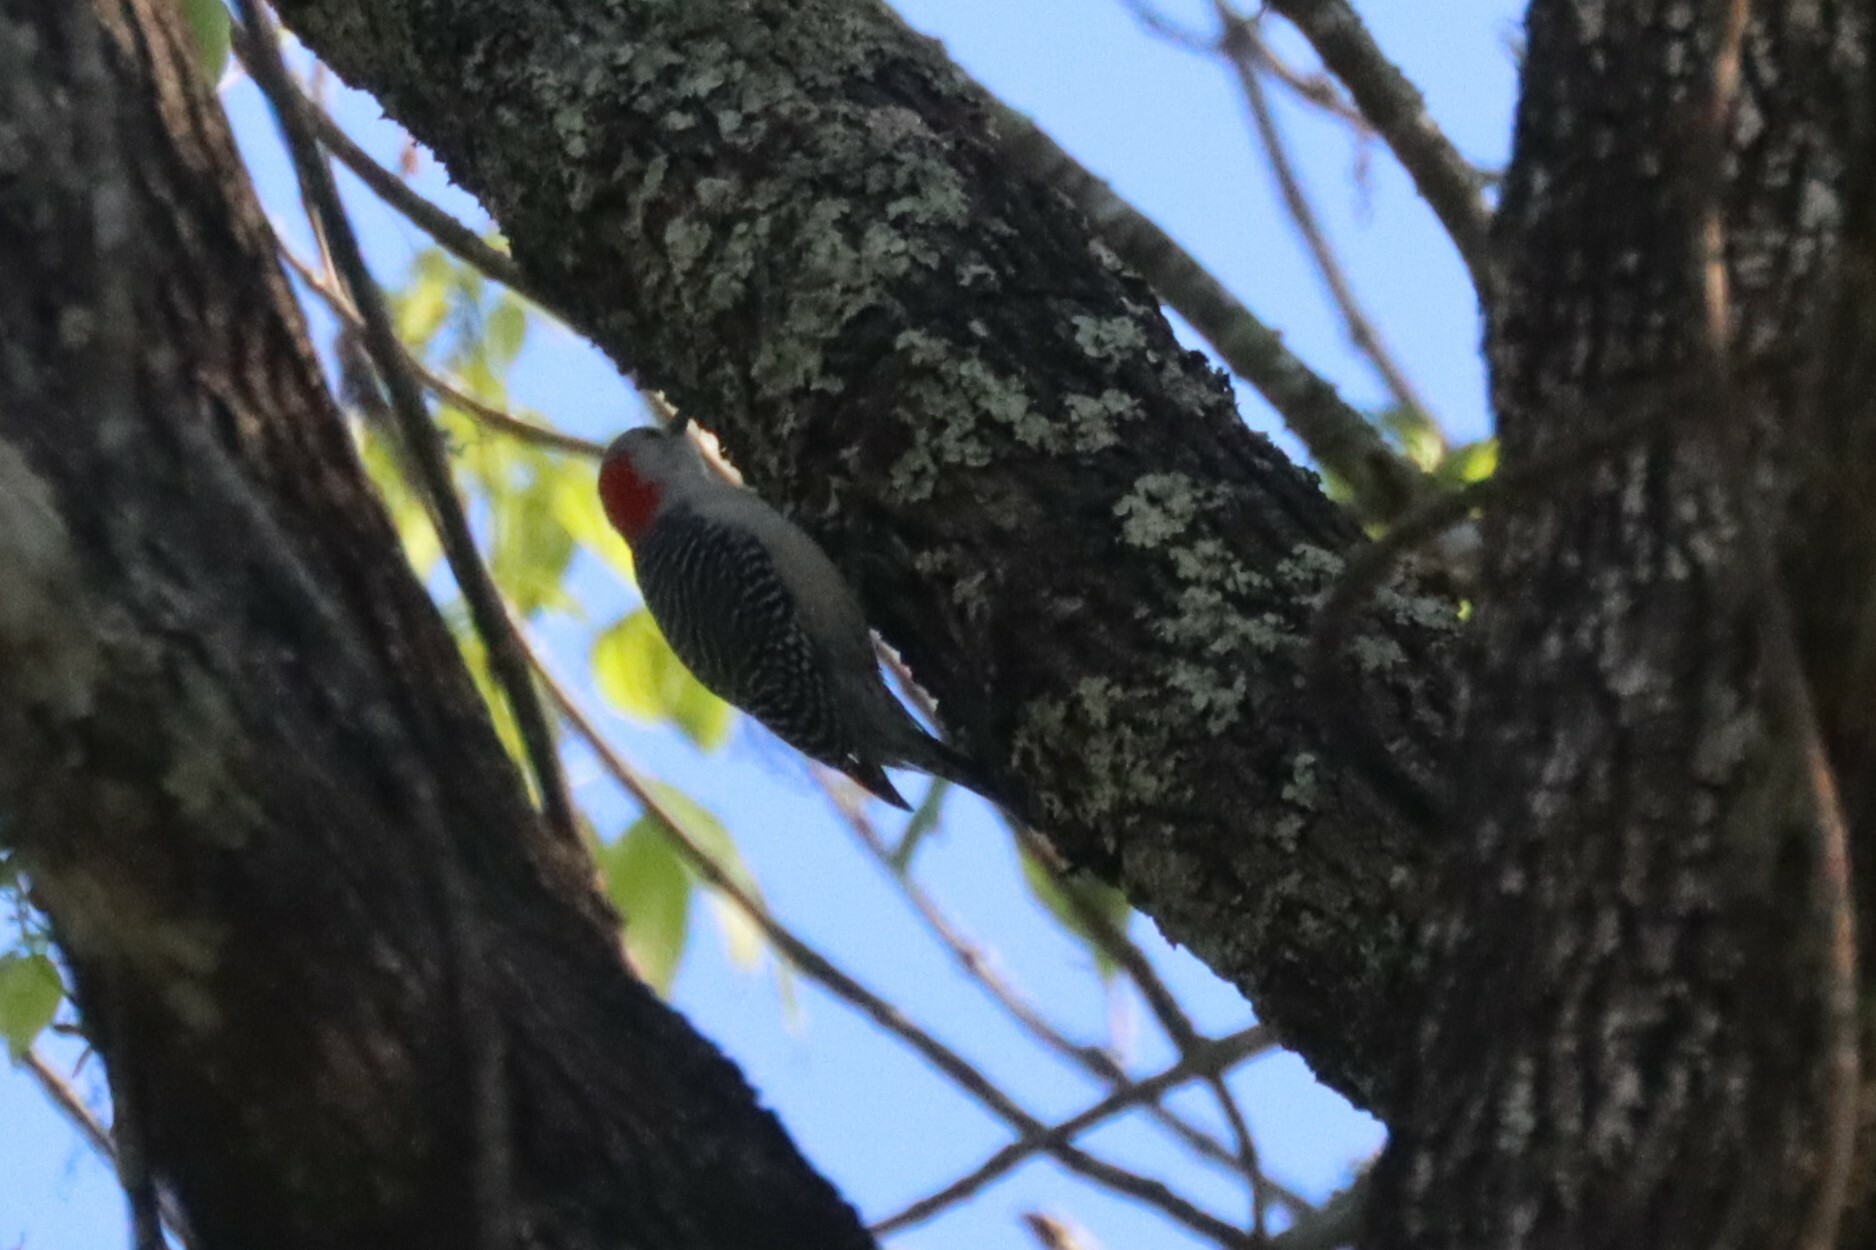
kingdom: Animalia
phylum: Chordata
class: Aves
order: Piciformes
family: Picidae
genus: Melanerpes
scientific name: Melanerpes carolinus
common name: Red-bellied woodpecker
